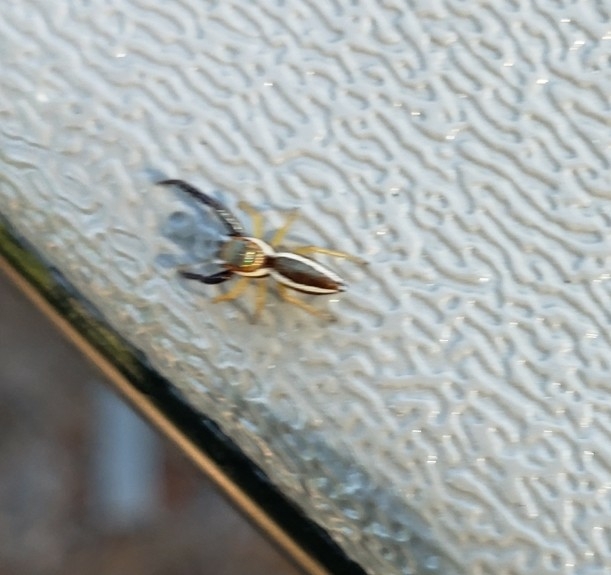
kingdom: Animalia
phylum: Arthropoda
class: Arachnida
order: Araneae
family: Salticidae
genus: Hentzia
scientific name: Hentzia palmarum
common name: Common hentz jumping spider
